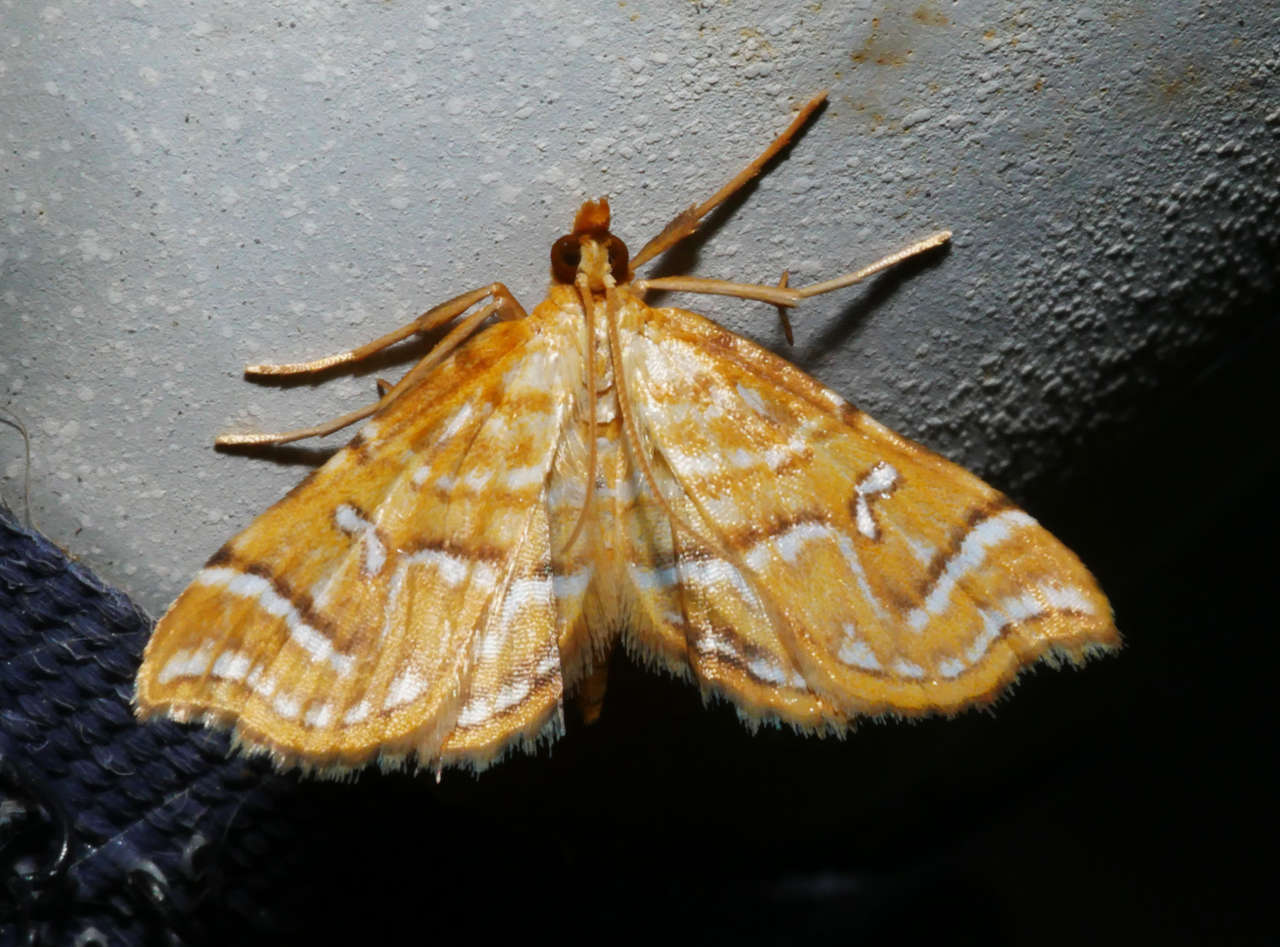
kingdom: Animalia
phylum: Arthropoda
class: Insecta
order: Lepidoptera
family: Pyralidae
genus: Musotima
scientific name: Musotima ochropteralis
